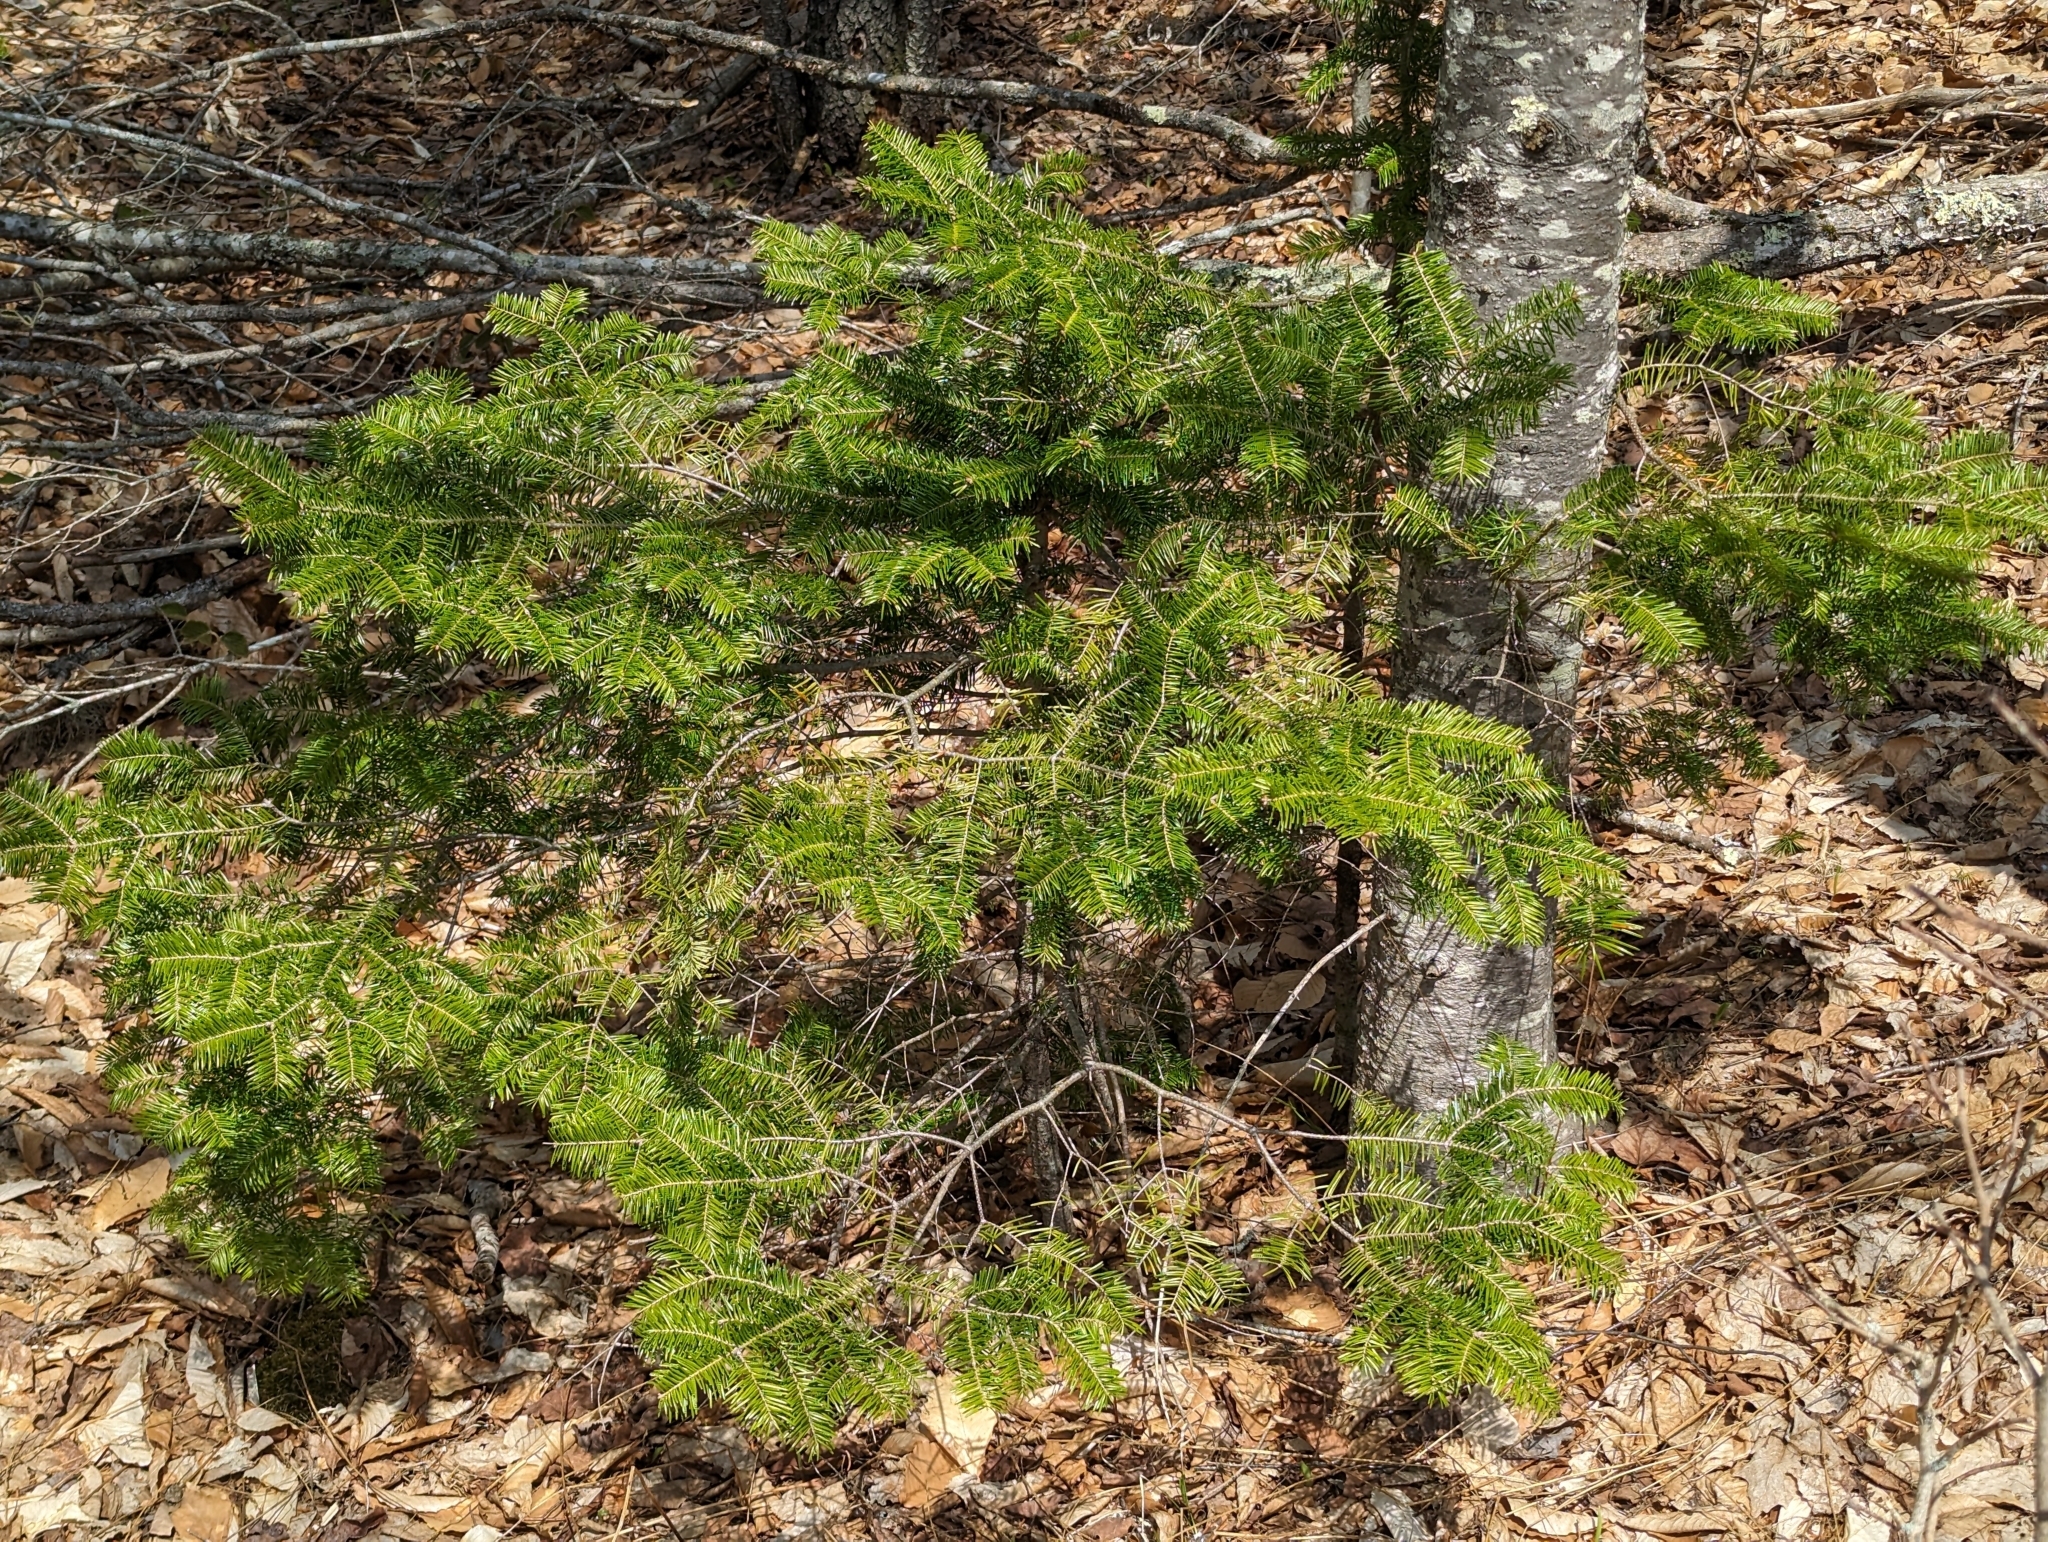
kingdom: Plantae
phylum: Tracheophyta
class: Pinopsida
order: Pinales
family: Pinaceae
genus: Abies
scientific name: Abies balsamea
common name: Balsam fir
